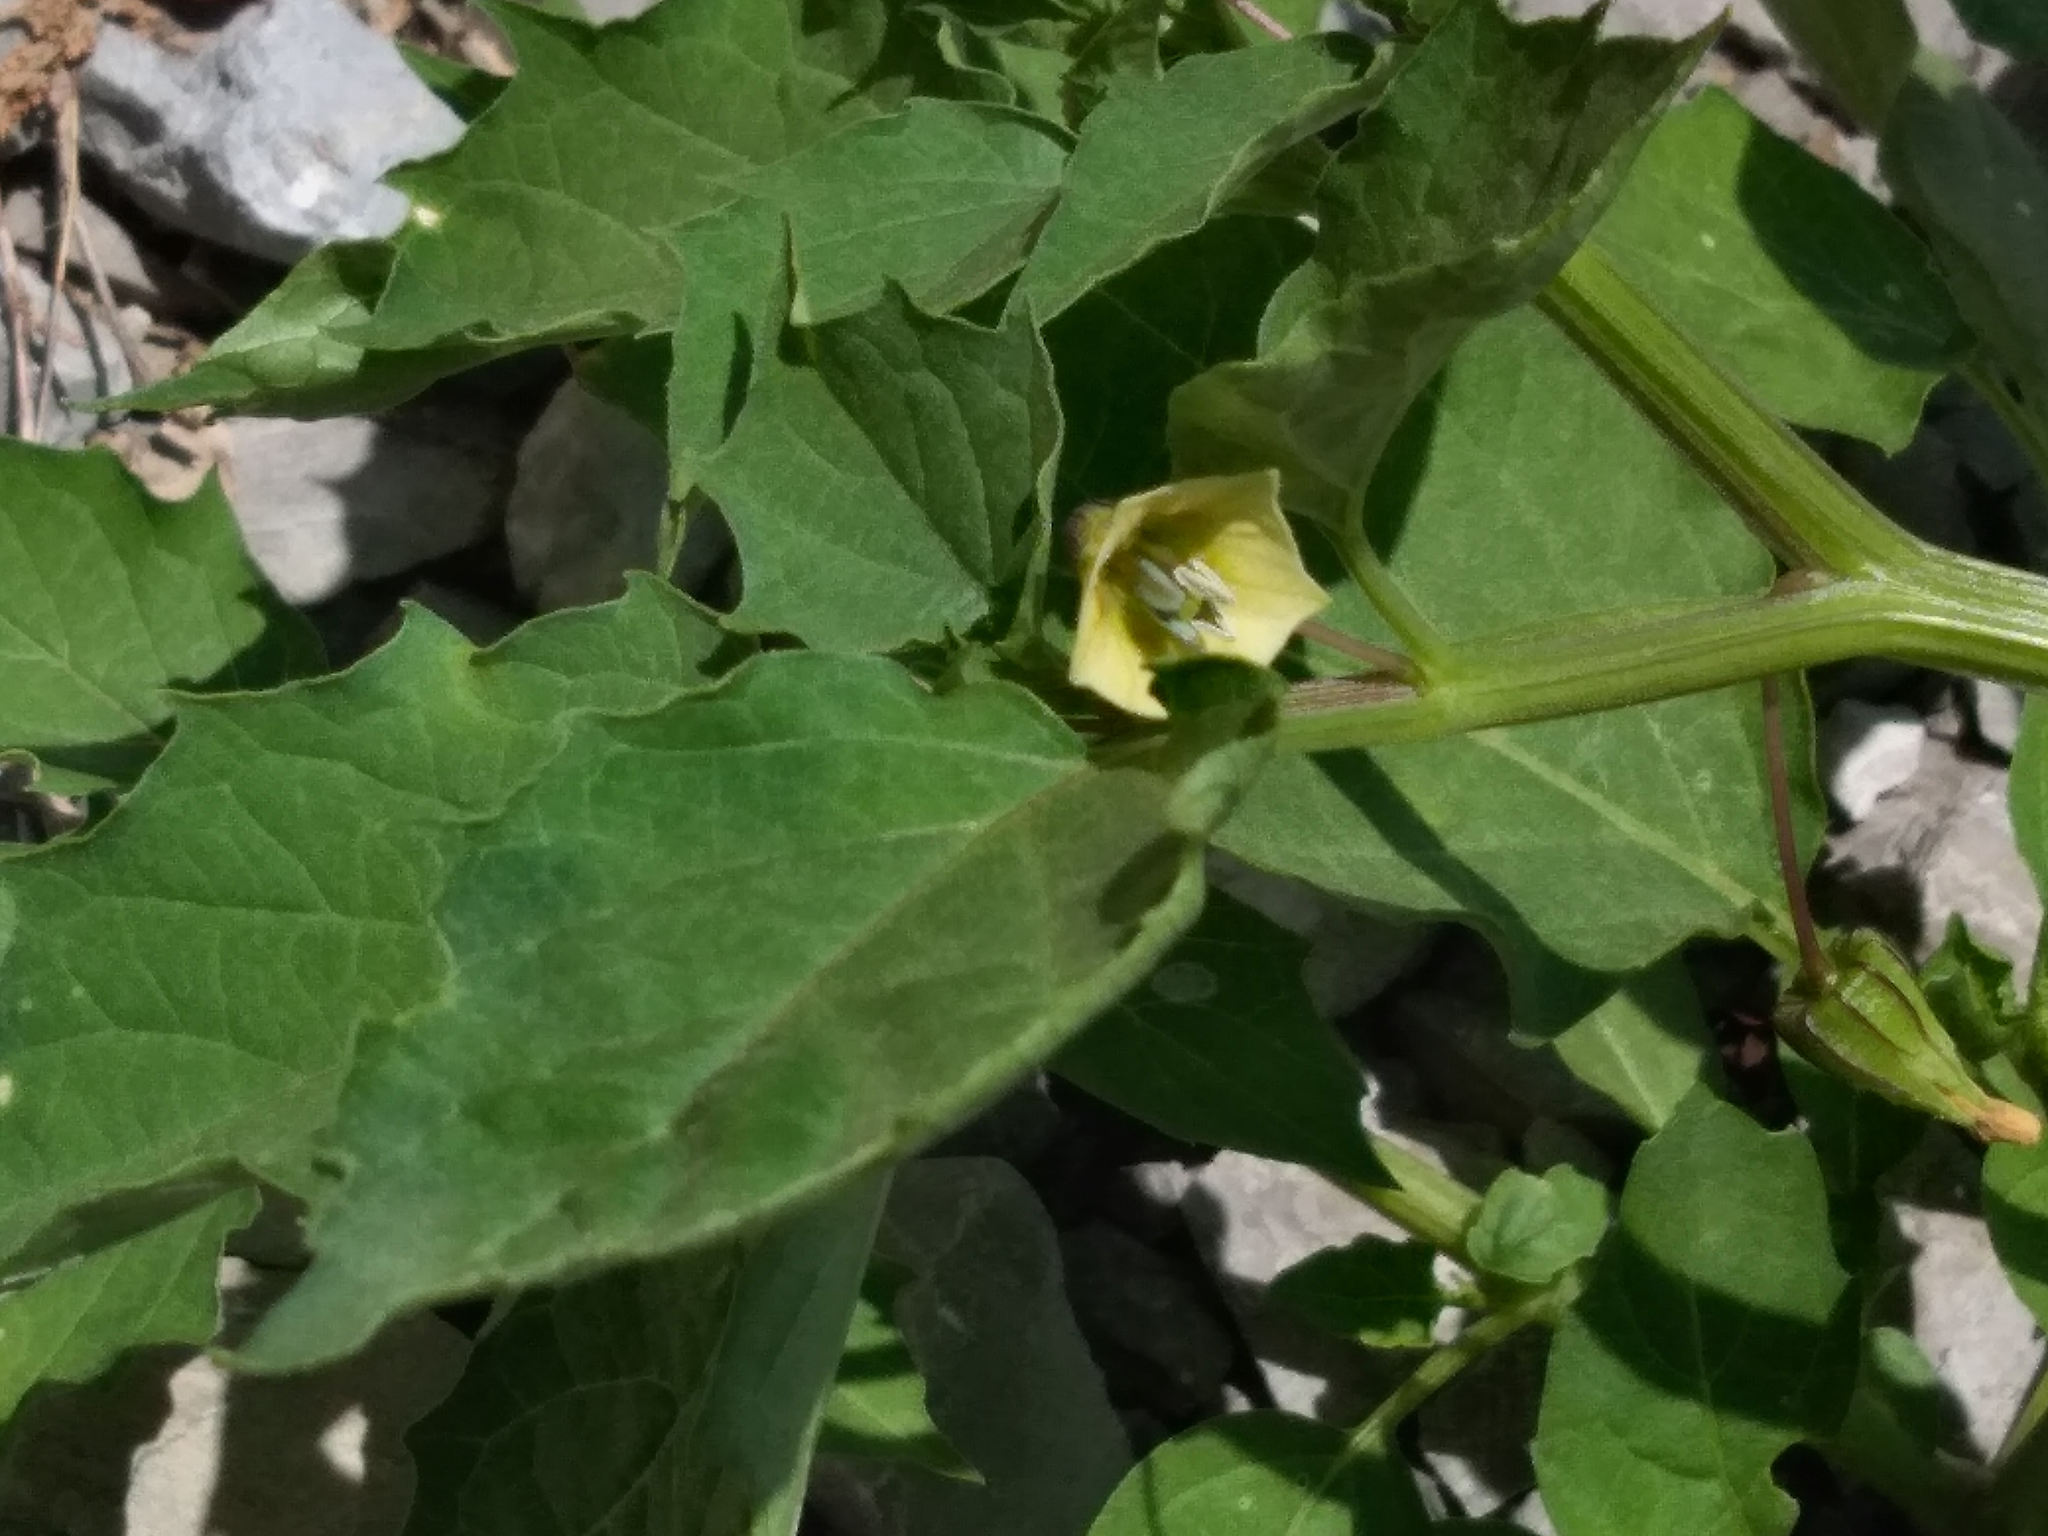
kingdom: Plantae
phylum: Tracheophyta
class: Magnoliopsida
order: Solanales
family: Solanaceae
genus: Physalis
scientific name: Physalis angulata
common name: Angular winter-cherry
